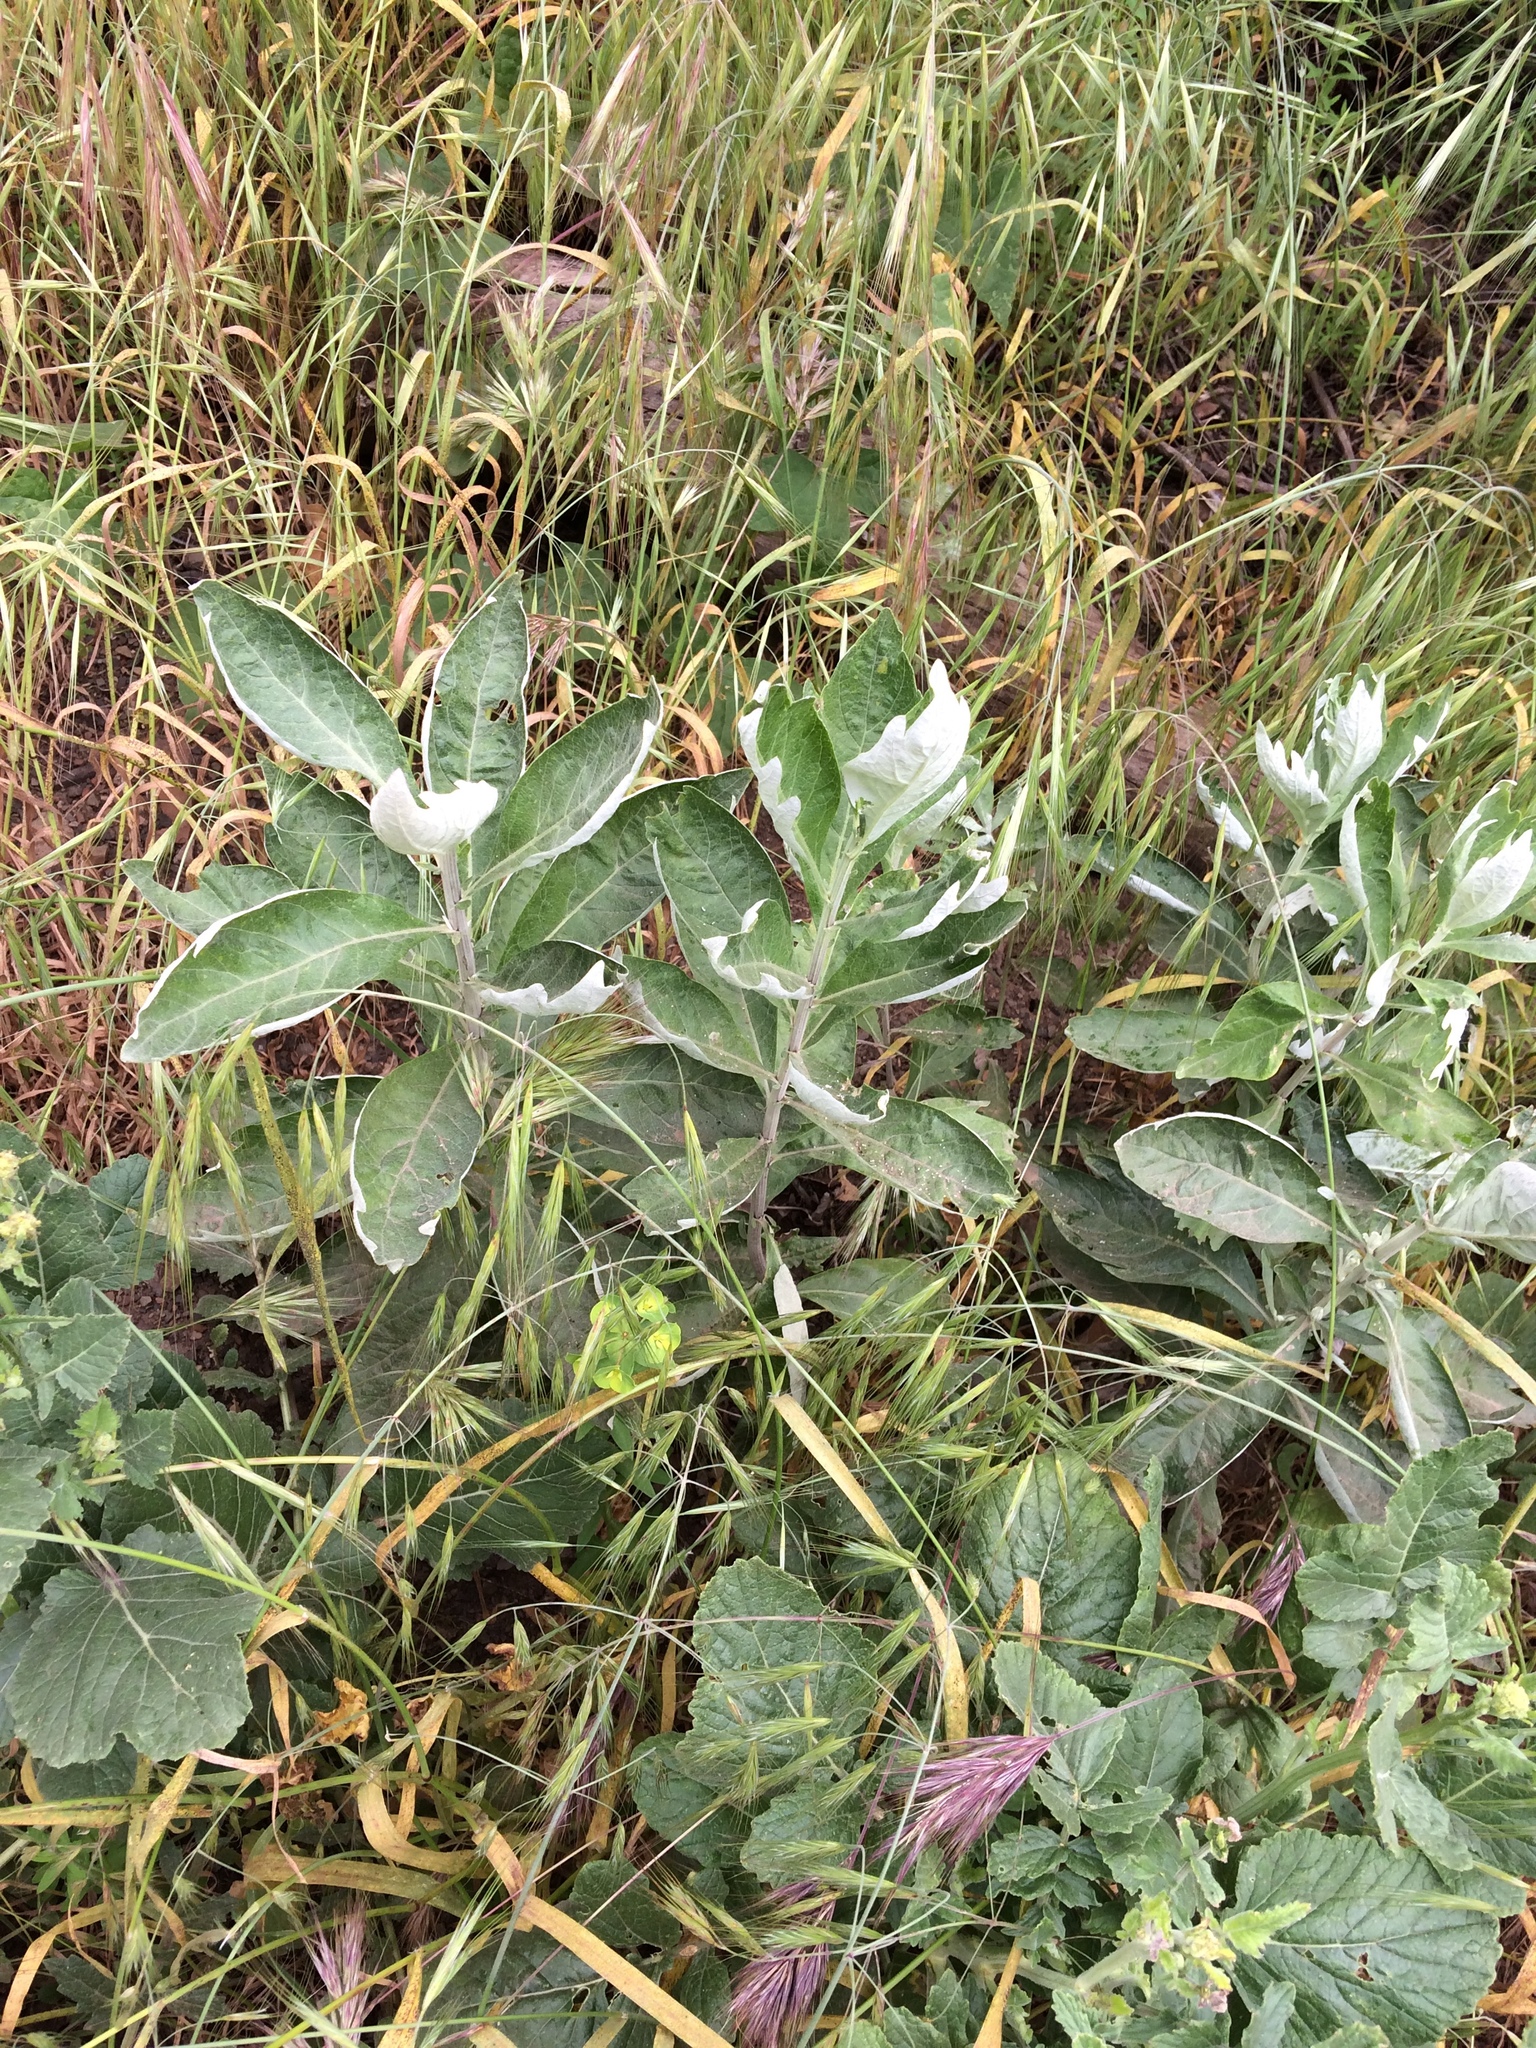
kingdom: Plantae
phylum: Tracheophyta
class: Magnoliopsida
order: Asterales
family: Asteraceae
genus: Artemisia
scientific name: Artemisia douglasiana
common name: Northwest mugwort
